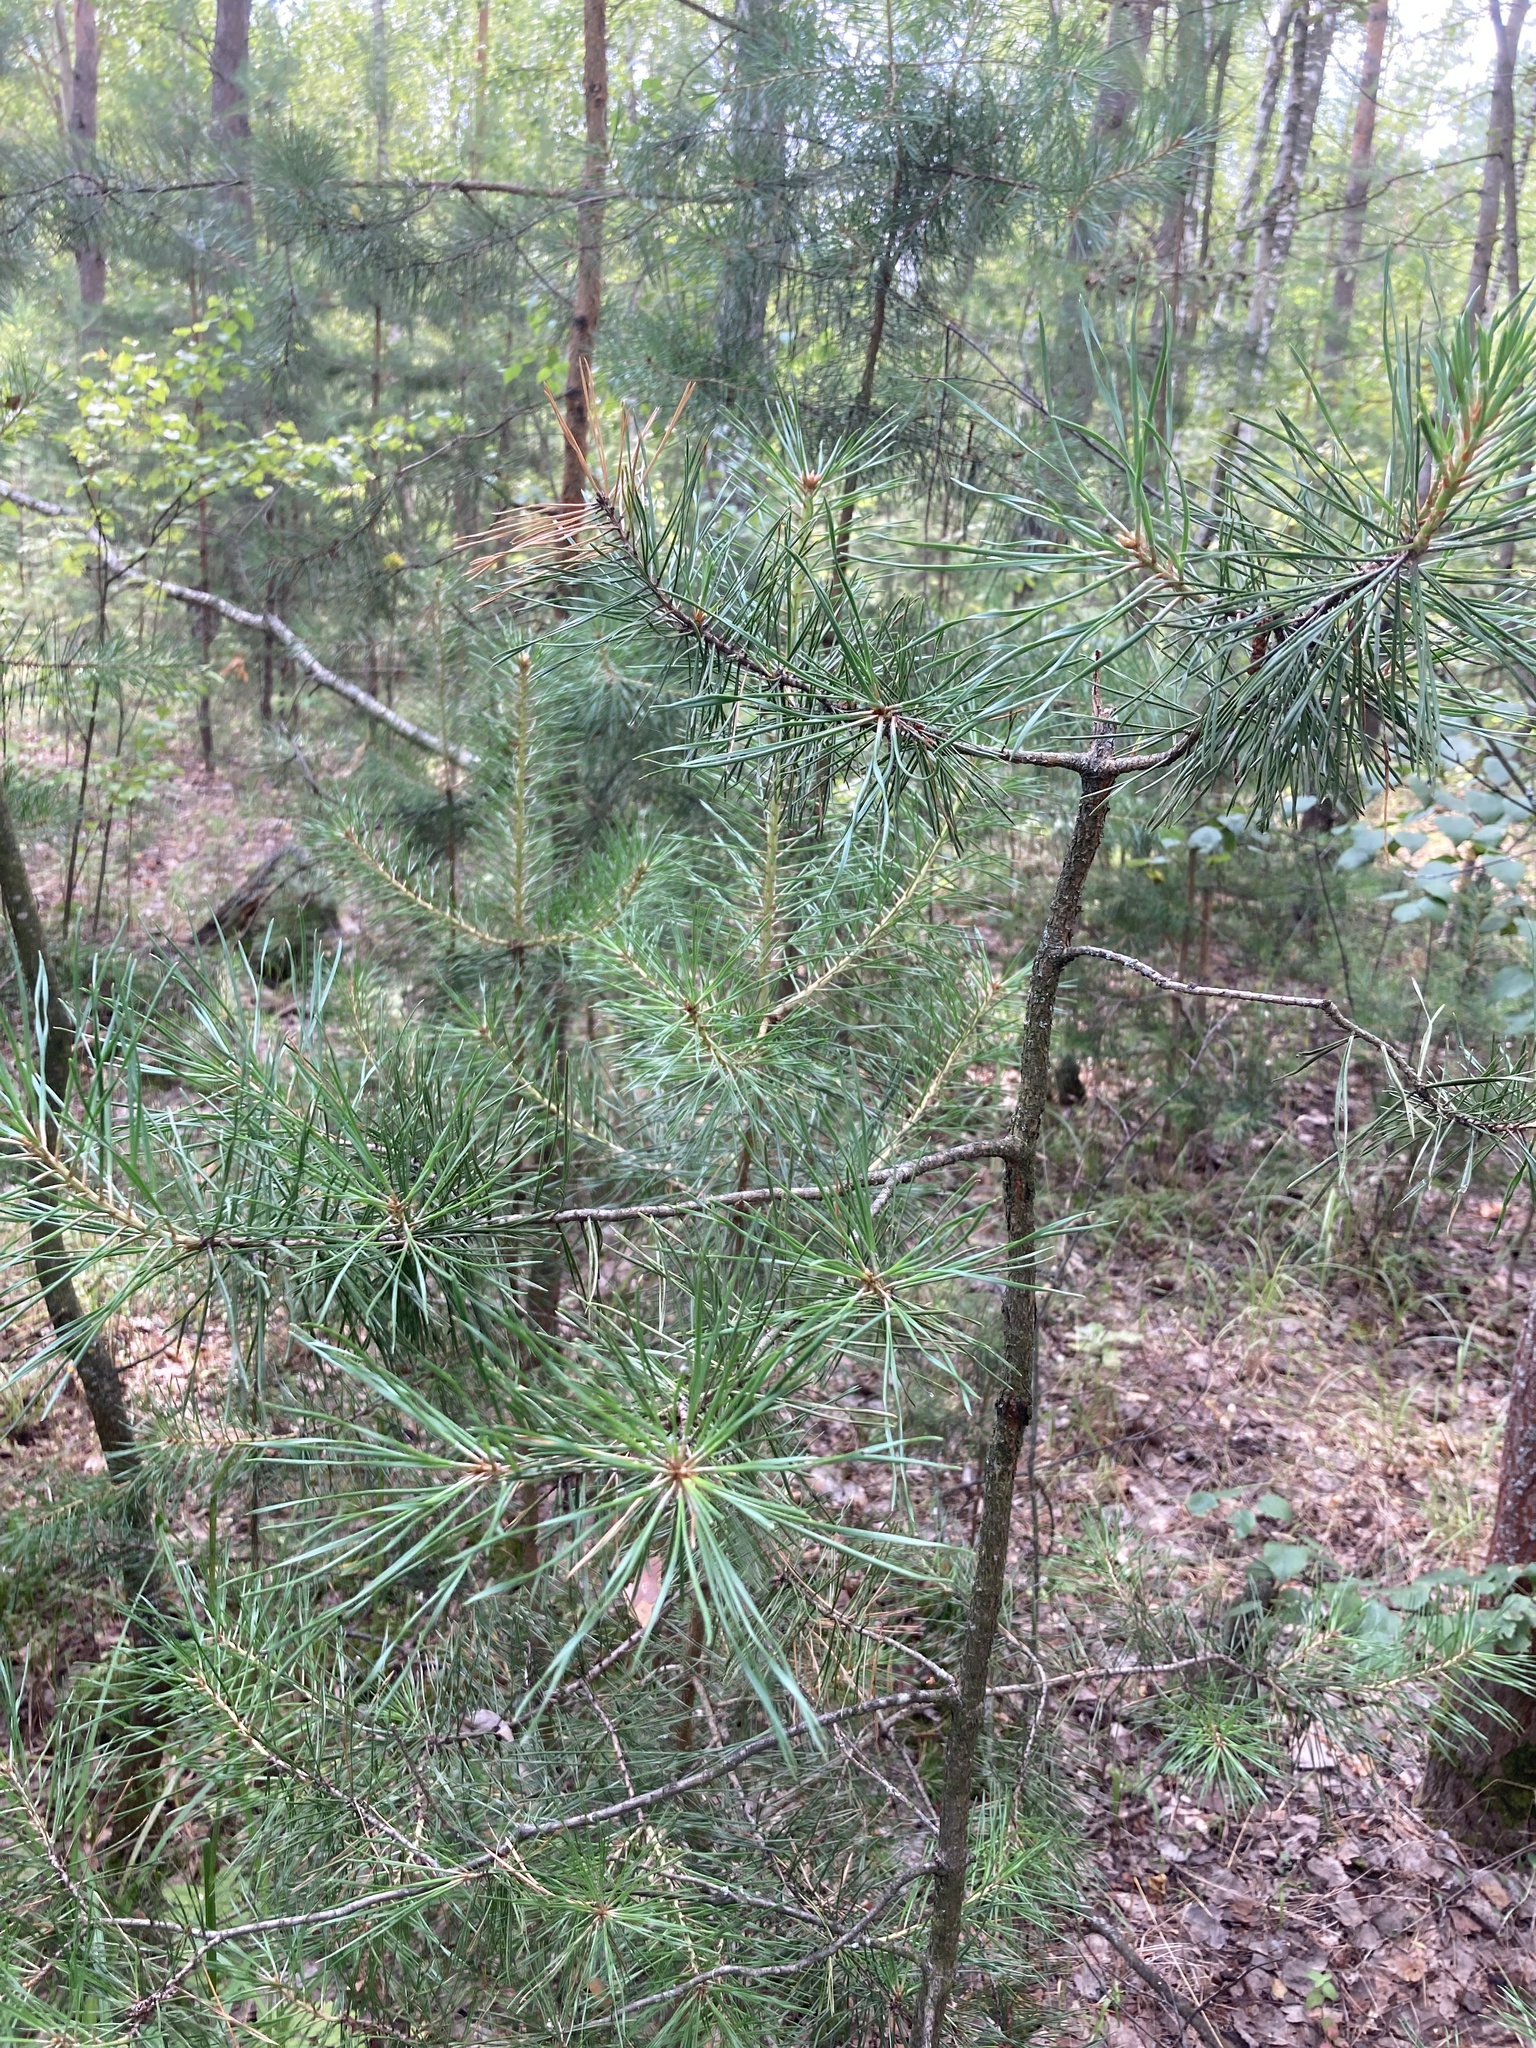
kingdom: Plantae
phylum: Tracheophyta
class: Pinopsida
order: Pinales
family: Pinaceae
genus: Pinus
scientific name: Pinus sylvestris
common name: Scots pine
